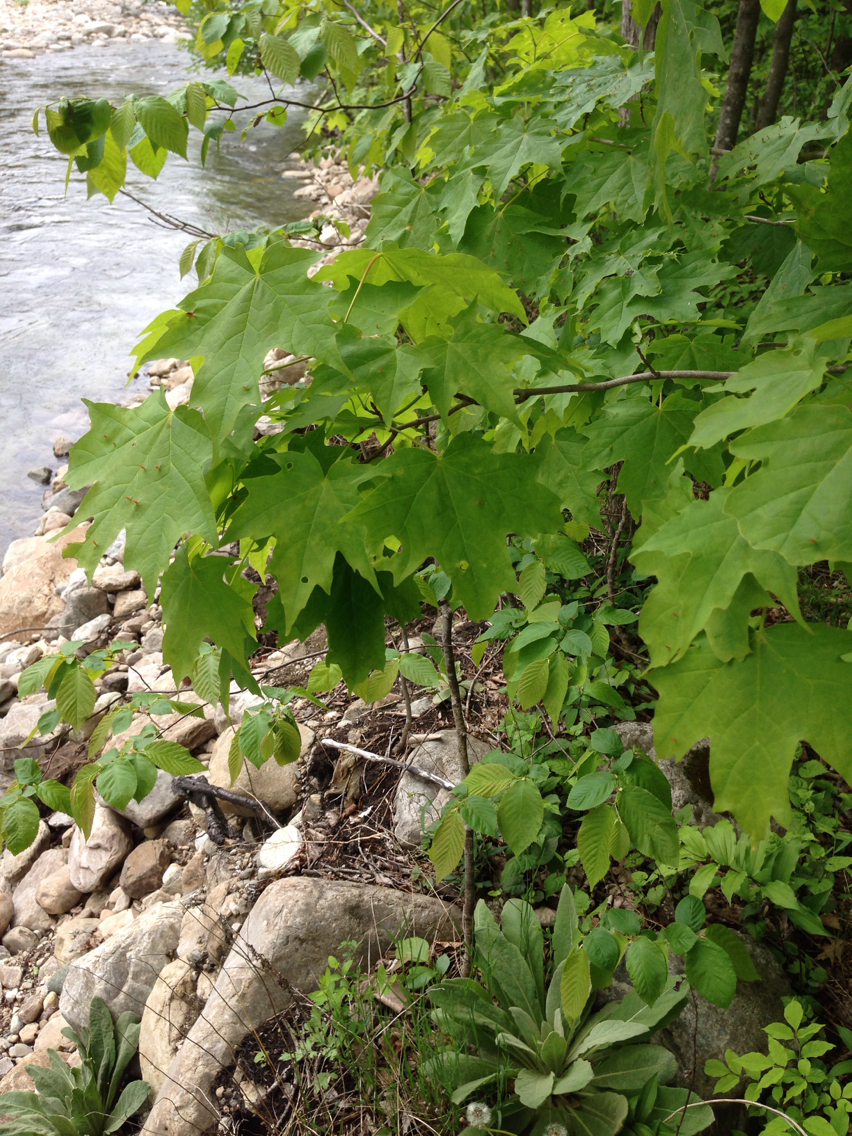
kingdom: Plantae
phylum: Tracheophyta
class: Magnoliopsida
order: Sapindales
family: Sapindaceae
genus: Acer
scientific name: Acer saccharum
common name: Sugar maple
